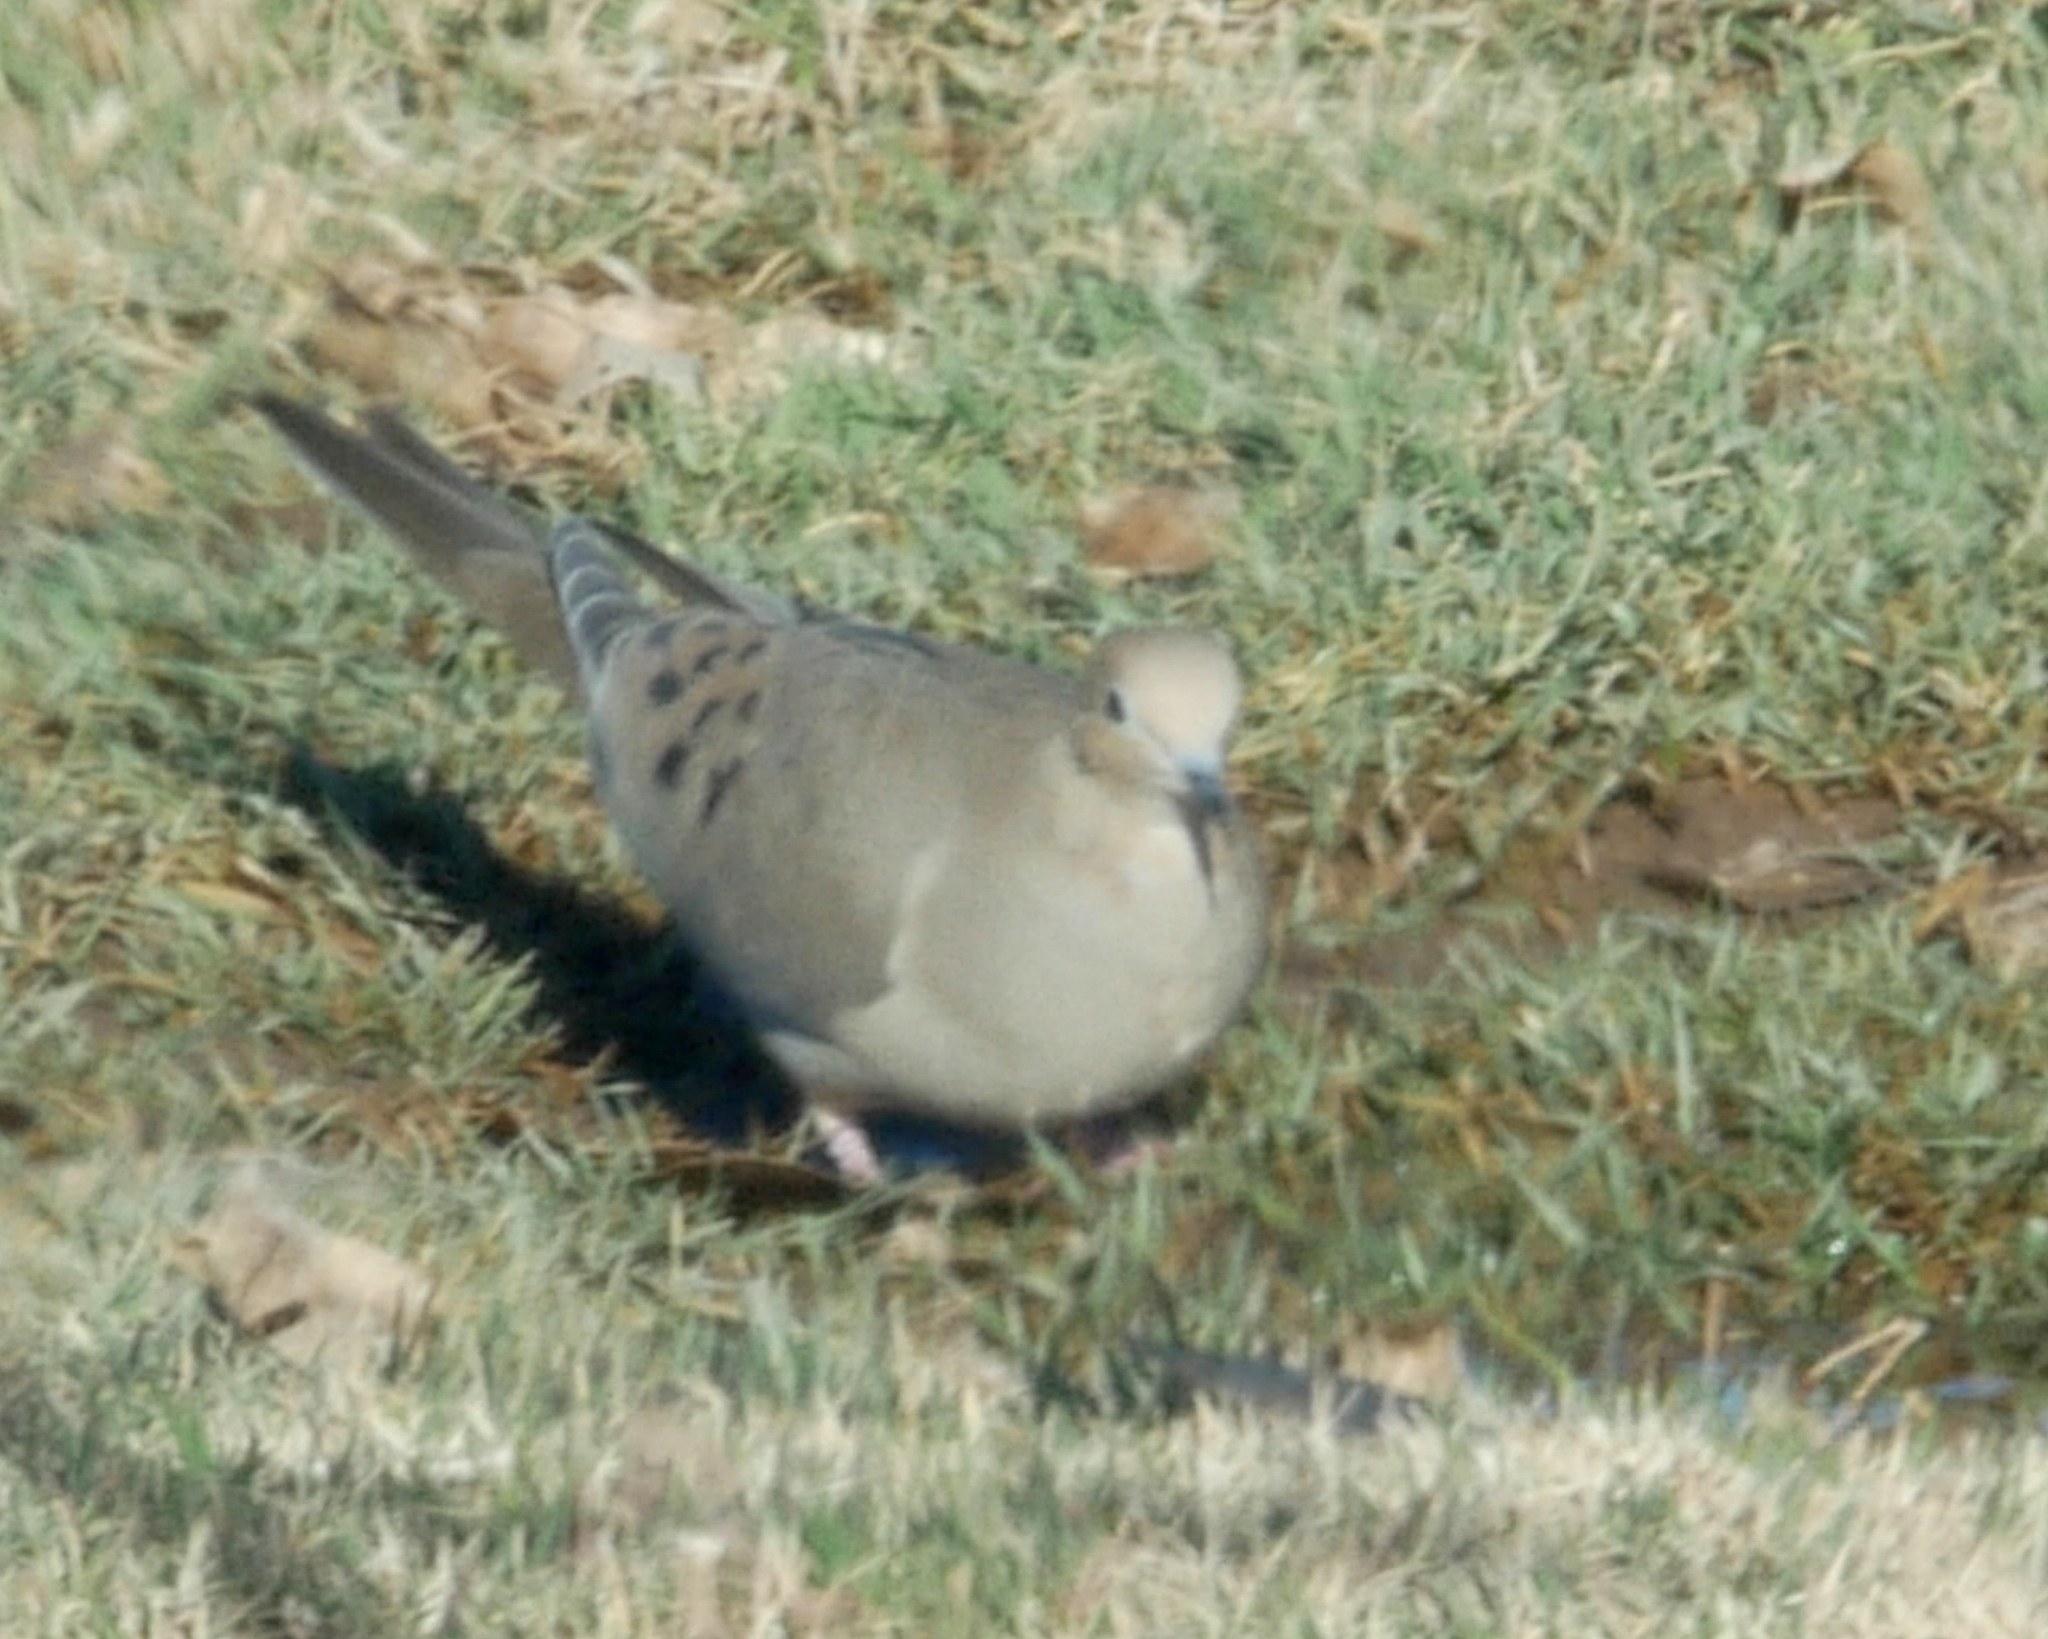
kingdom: Animalia
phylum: Chordata
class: Aves
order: Columbiformes
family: Columbidae
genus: Zenaida
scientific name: Zenaida macroura
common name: Mourning dove
